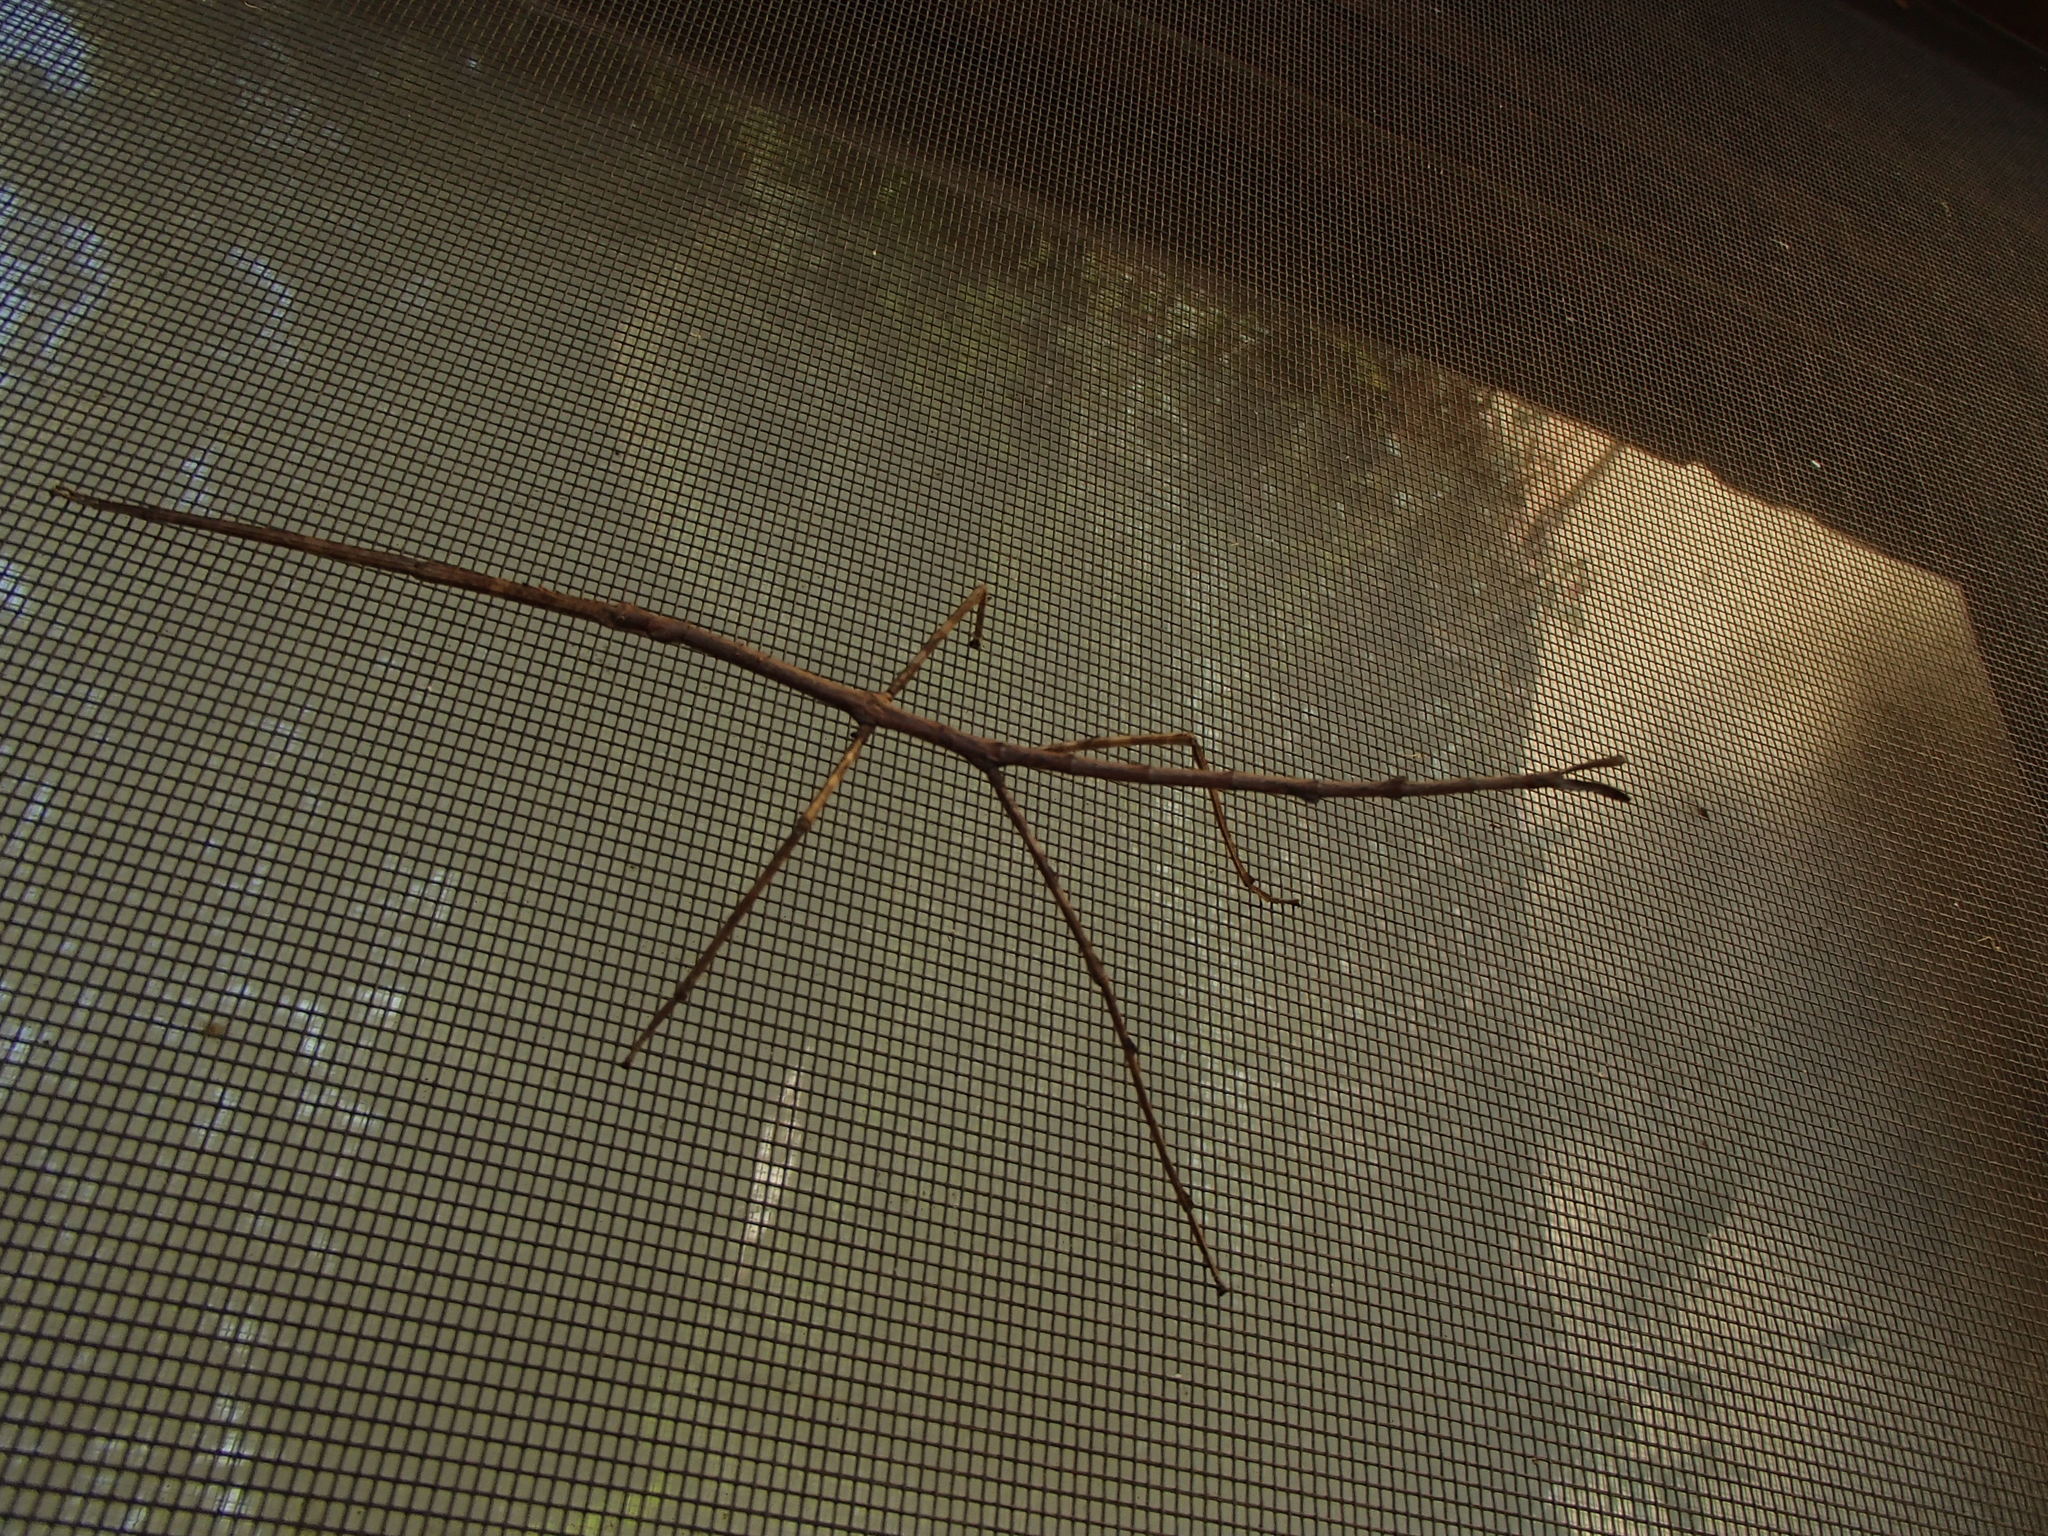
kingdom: Animalia
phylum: Arthropoda
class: Insecta
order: Phasmida
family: Phasmatidae
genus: Ctenomorpha
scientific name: Ctenomorpha marginipennis
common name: Margined-winged stick-insect
